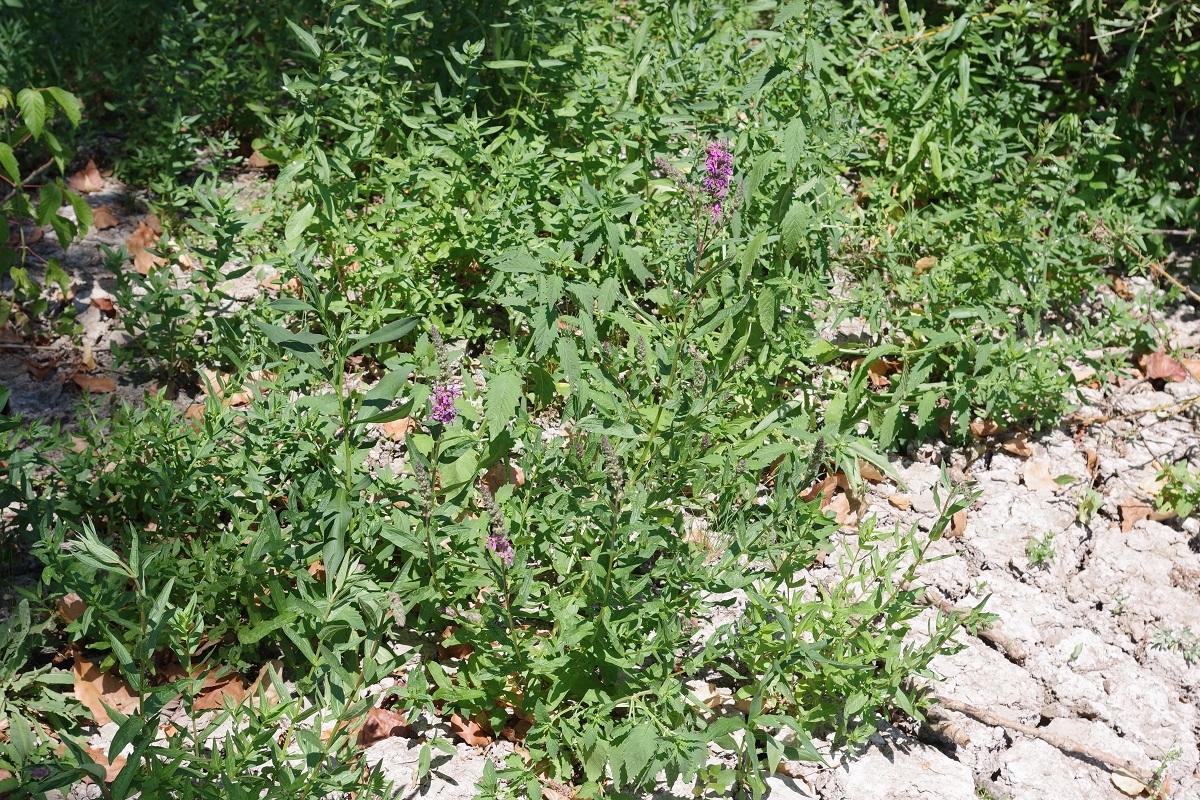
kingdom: Plantae
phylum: Tracheophyta
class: Magnoliopsida
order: Myrtales
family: Lythraceae
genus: Lythrum
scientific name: Lythrum salicaria
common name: Purple loosestrife
